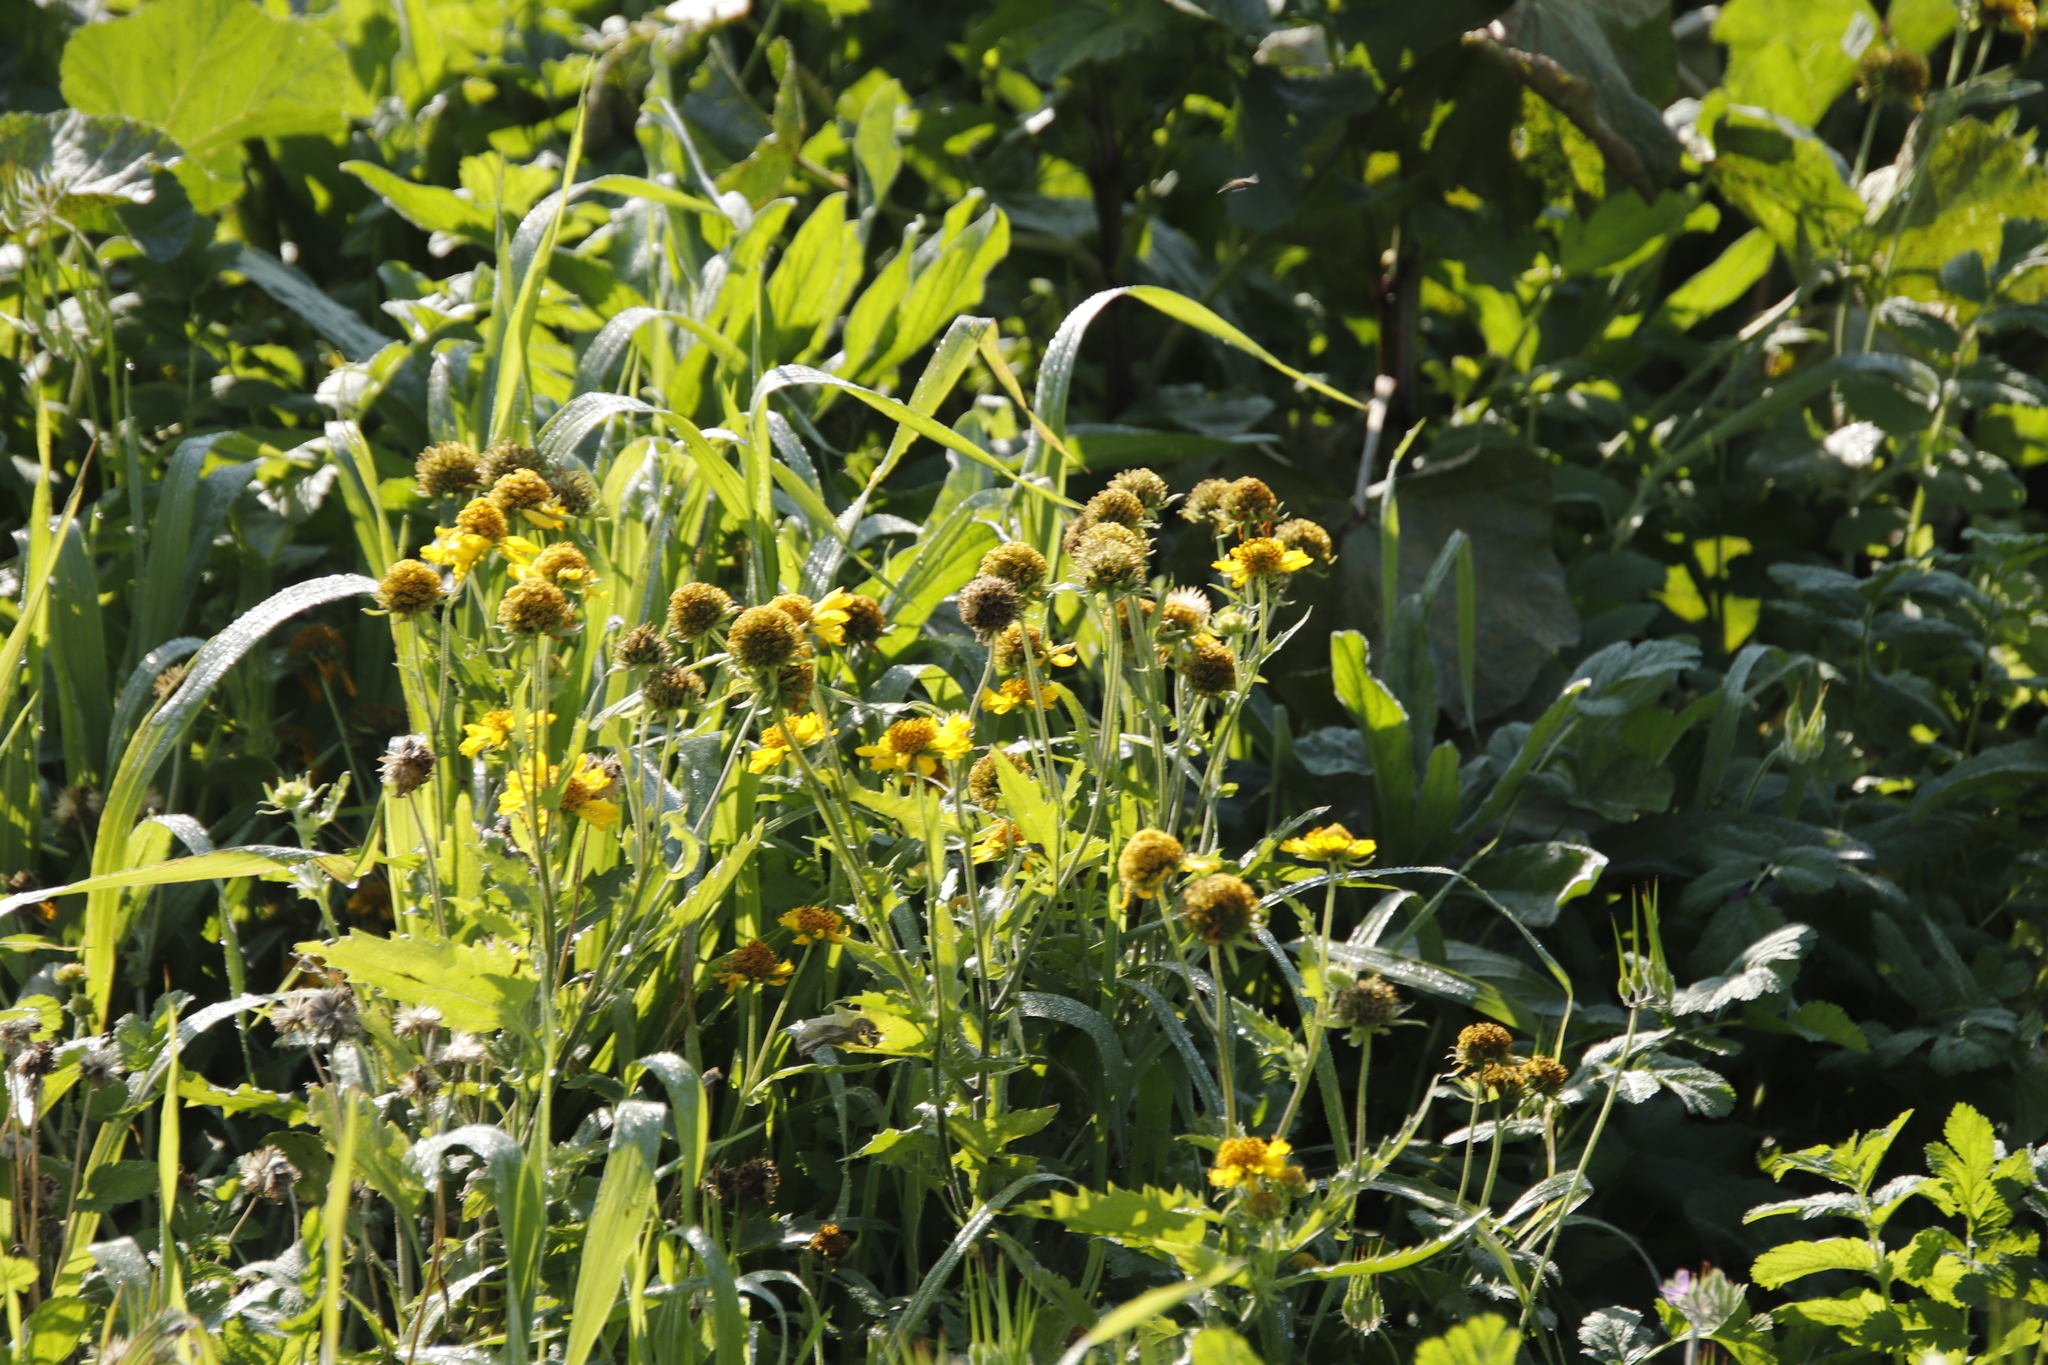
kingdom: Plantae
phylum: Tracheophyta
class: Magnoliopsida
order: Asterales
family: Asteraceae
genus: Verbesina
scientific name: Verbesina encelioides
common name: Golden crownbeard
